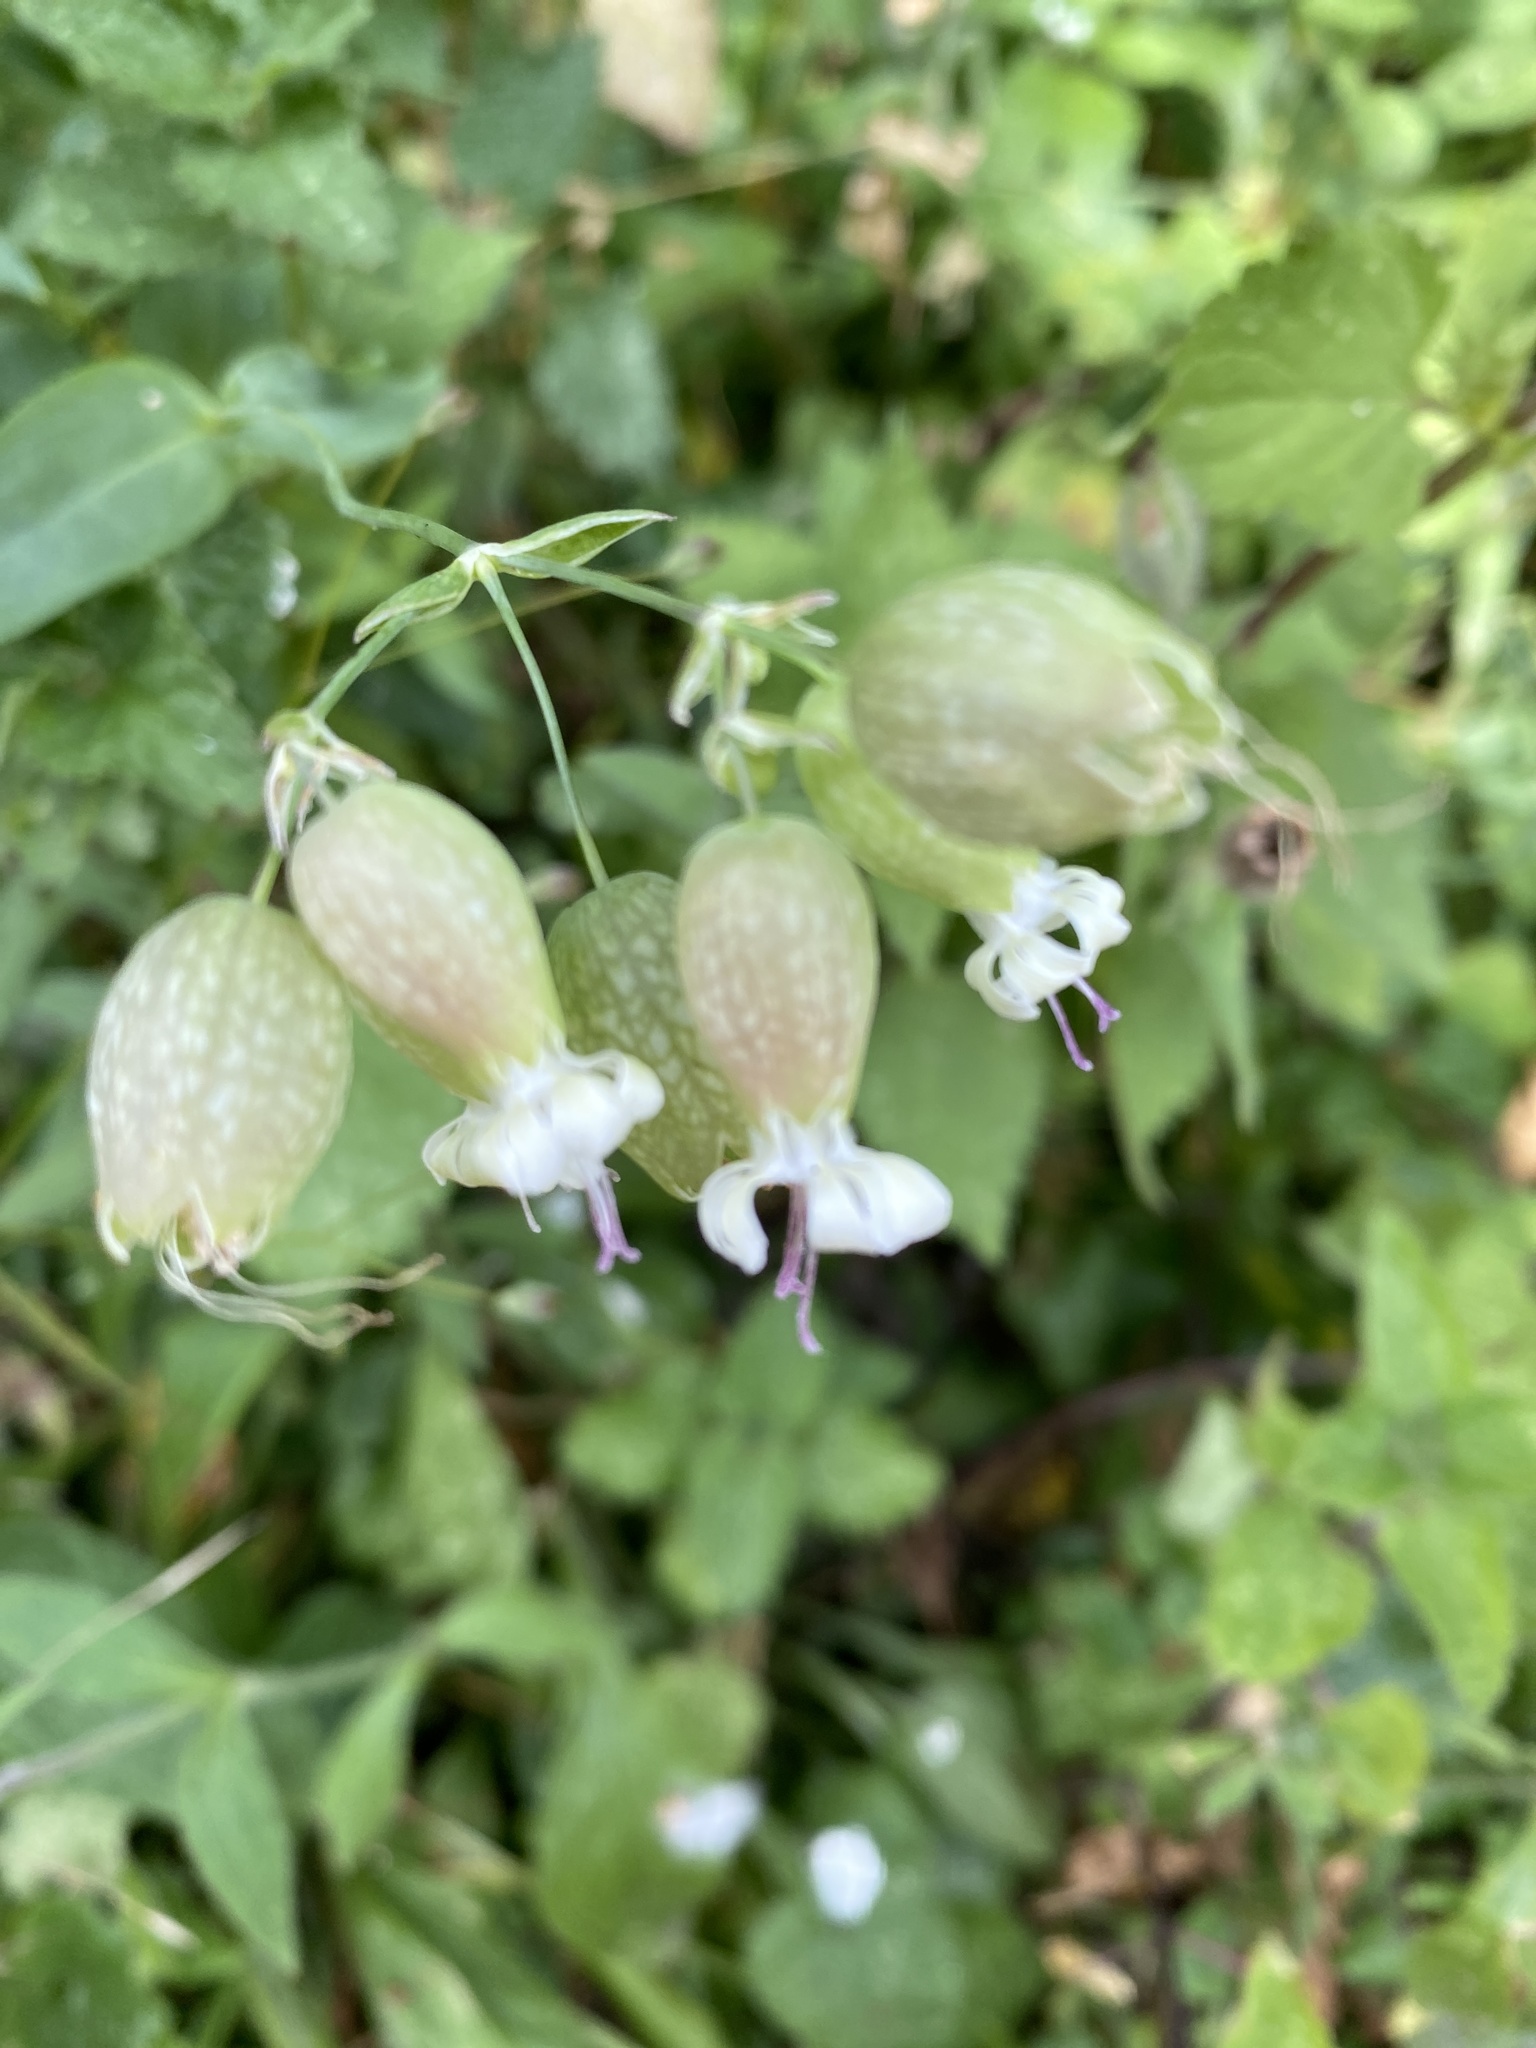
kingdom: Plantae
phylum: Tracheophyta
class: Magnoliopsida
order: Caryophyllales
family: Caryophyllaceae
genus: Silene
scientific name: Silene vulgaris
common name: Bladder campion
